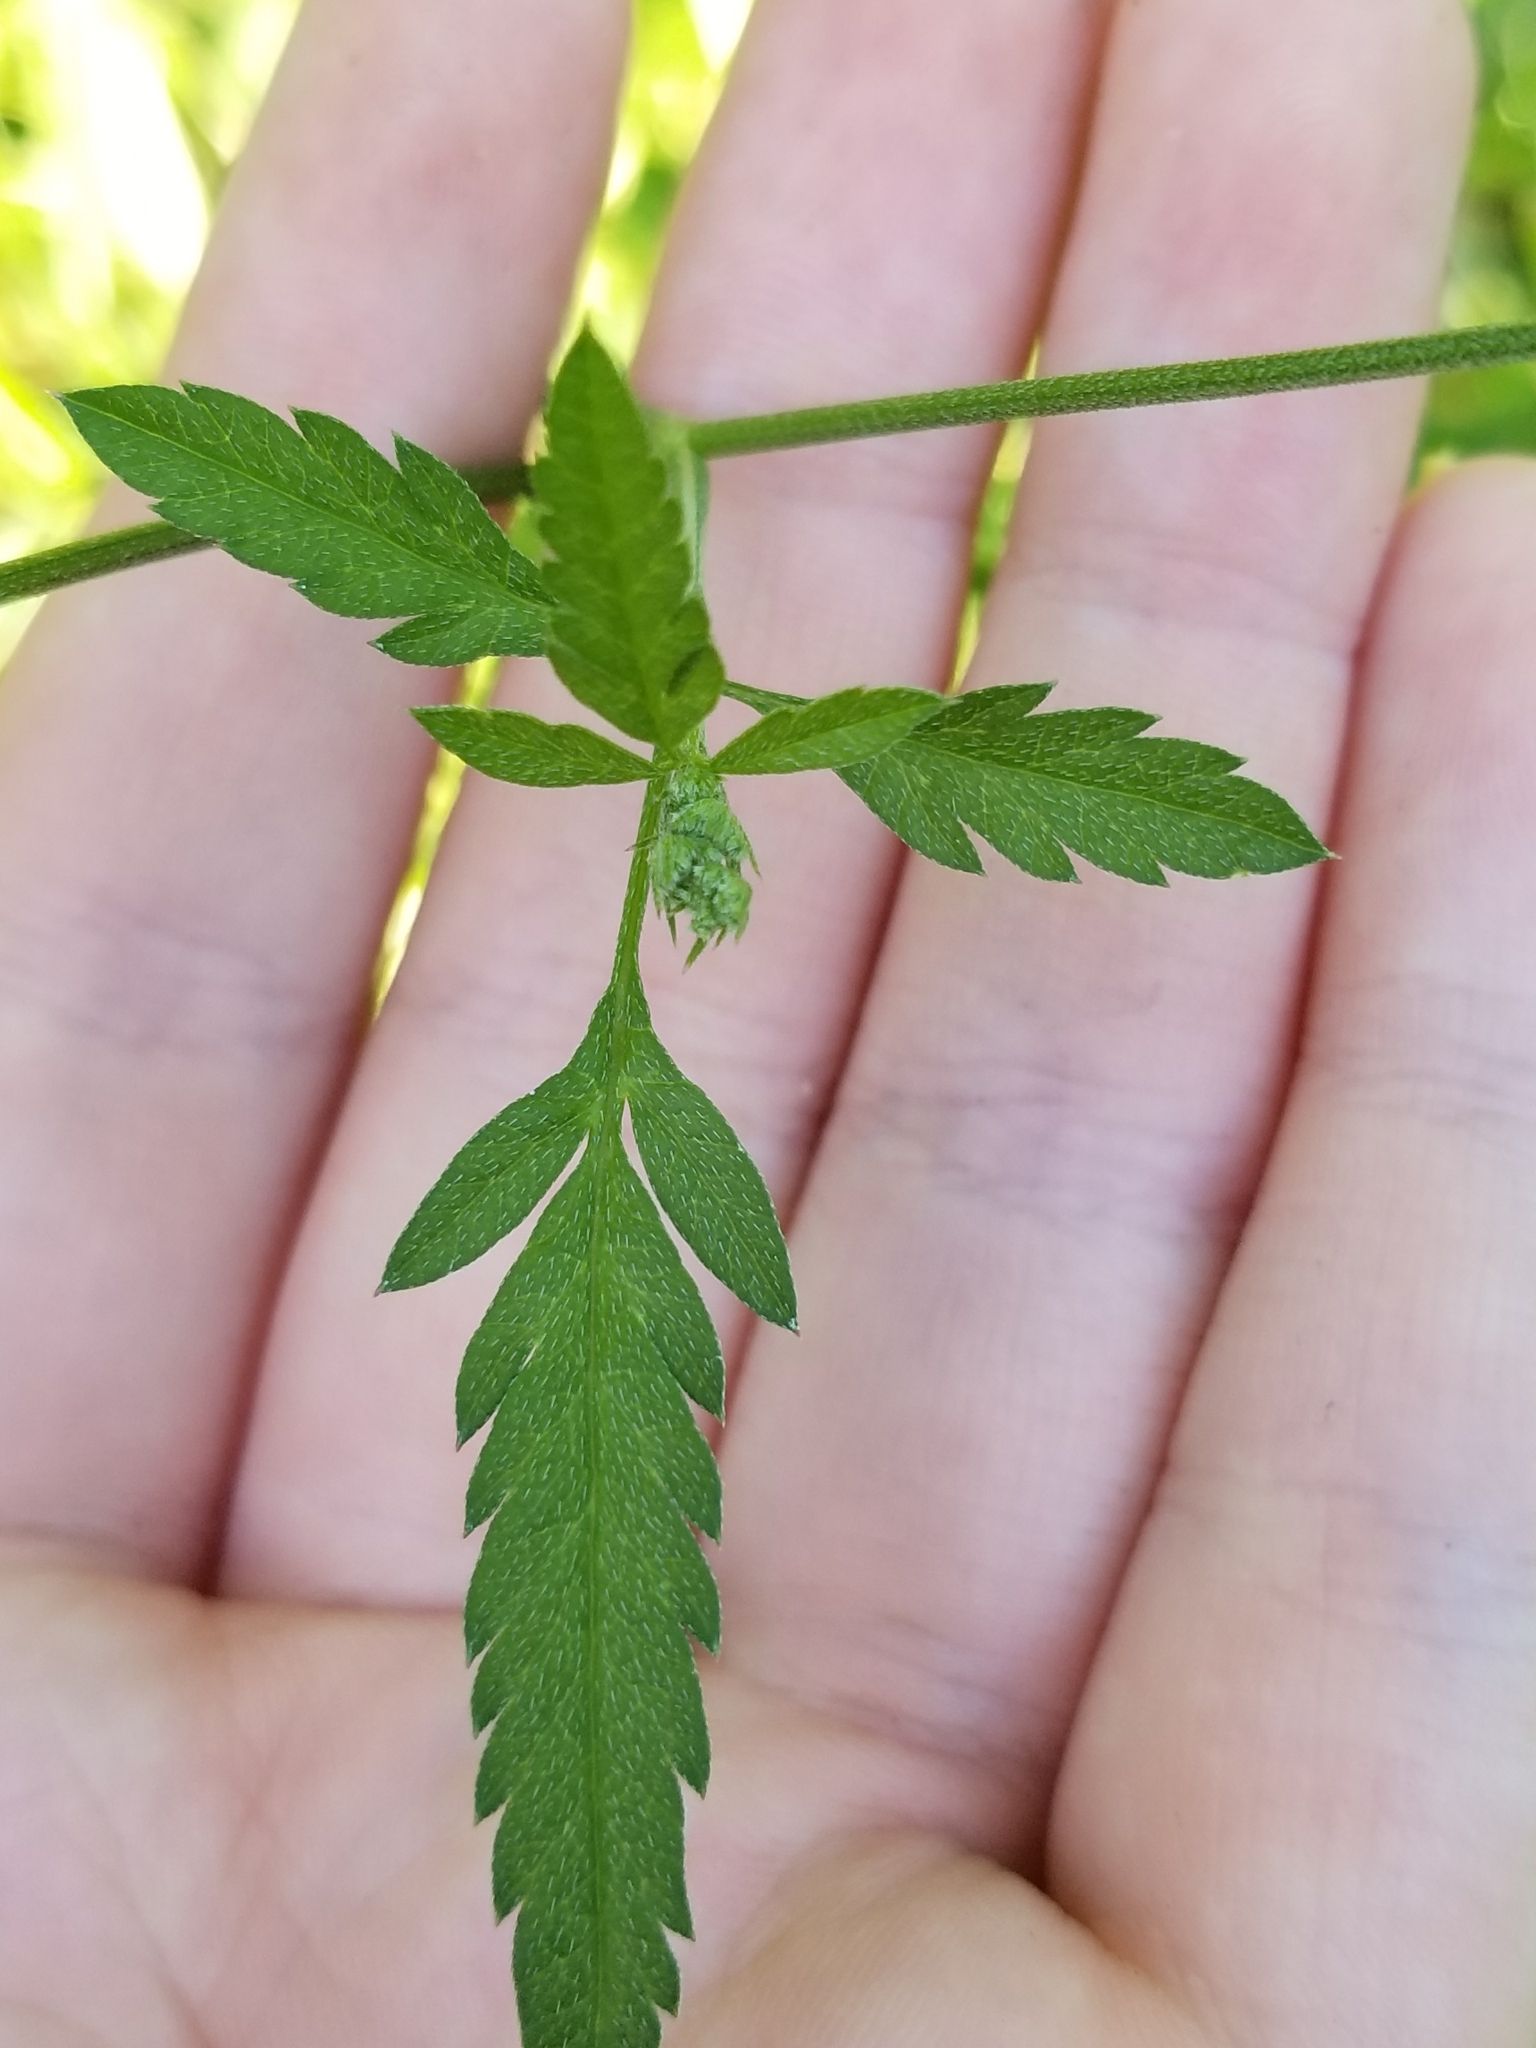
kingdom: Plantae
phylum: Tracheophyta
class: Magnoliopsida
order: Apiales
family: Apiaceae
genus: Torilis
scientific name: Torilis arvensis
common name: Spreading hedge-parsley
